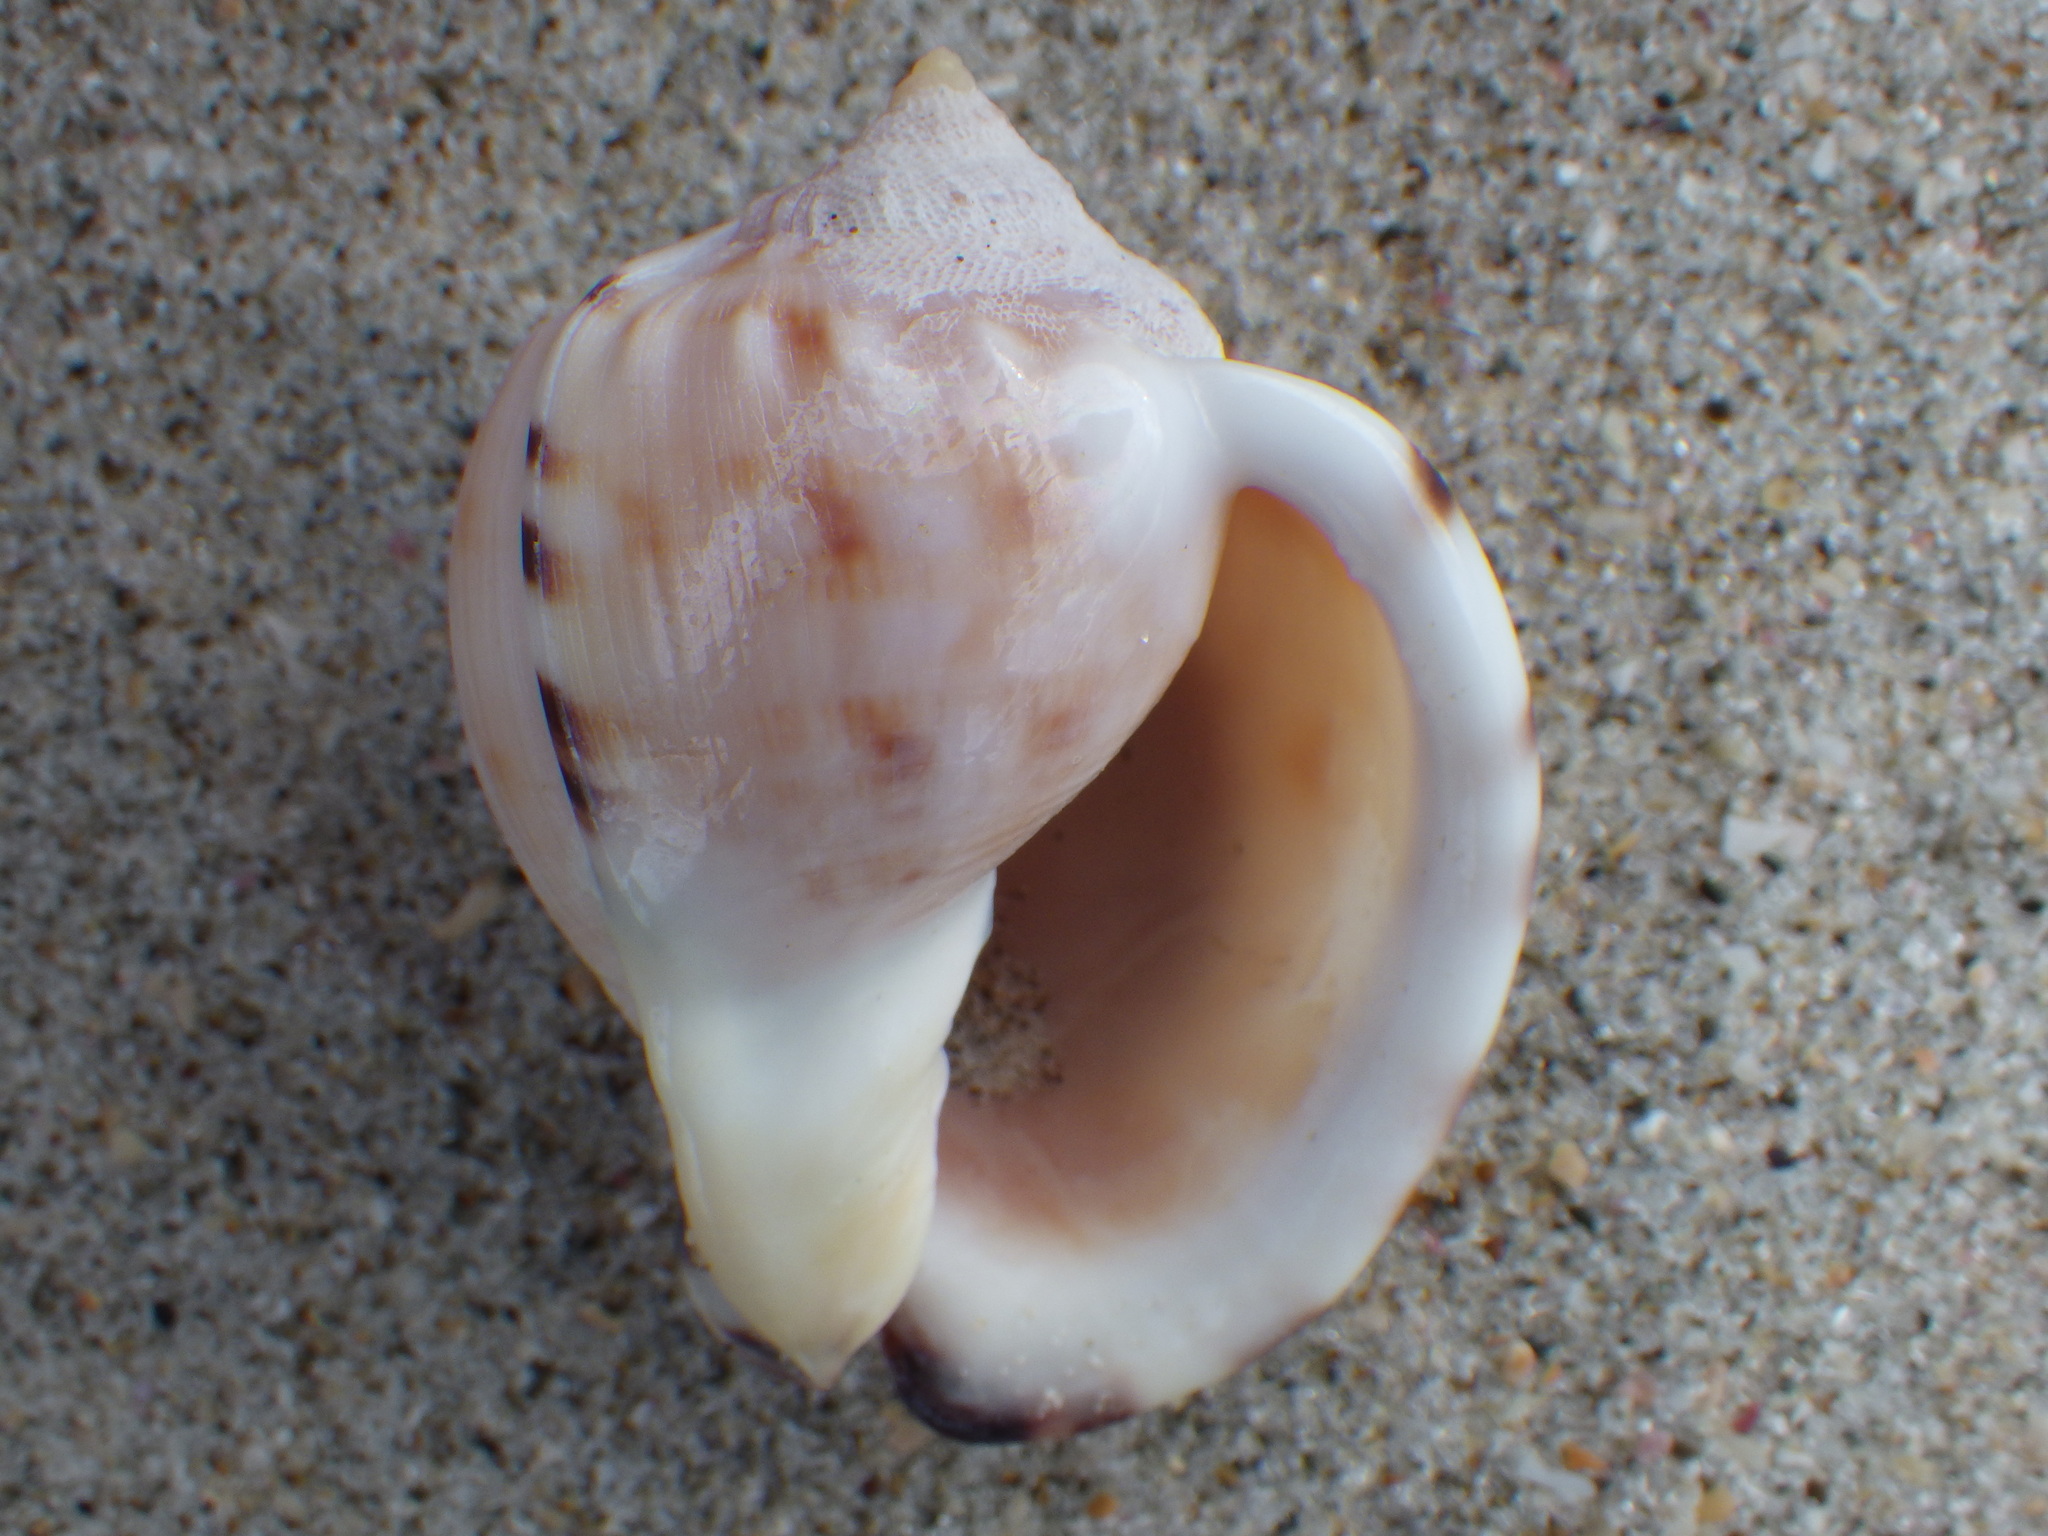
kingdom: Animalia
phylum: Mollusca
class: Gastropoda
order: Littorinimorpha
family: Cassidae
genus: Semicassis
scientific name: Semicassis pyrum
